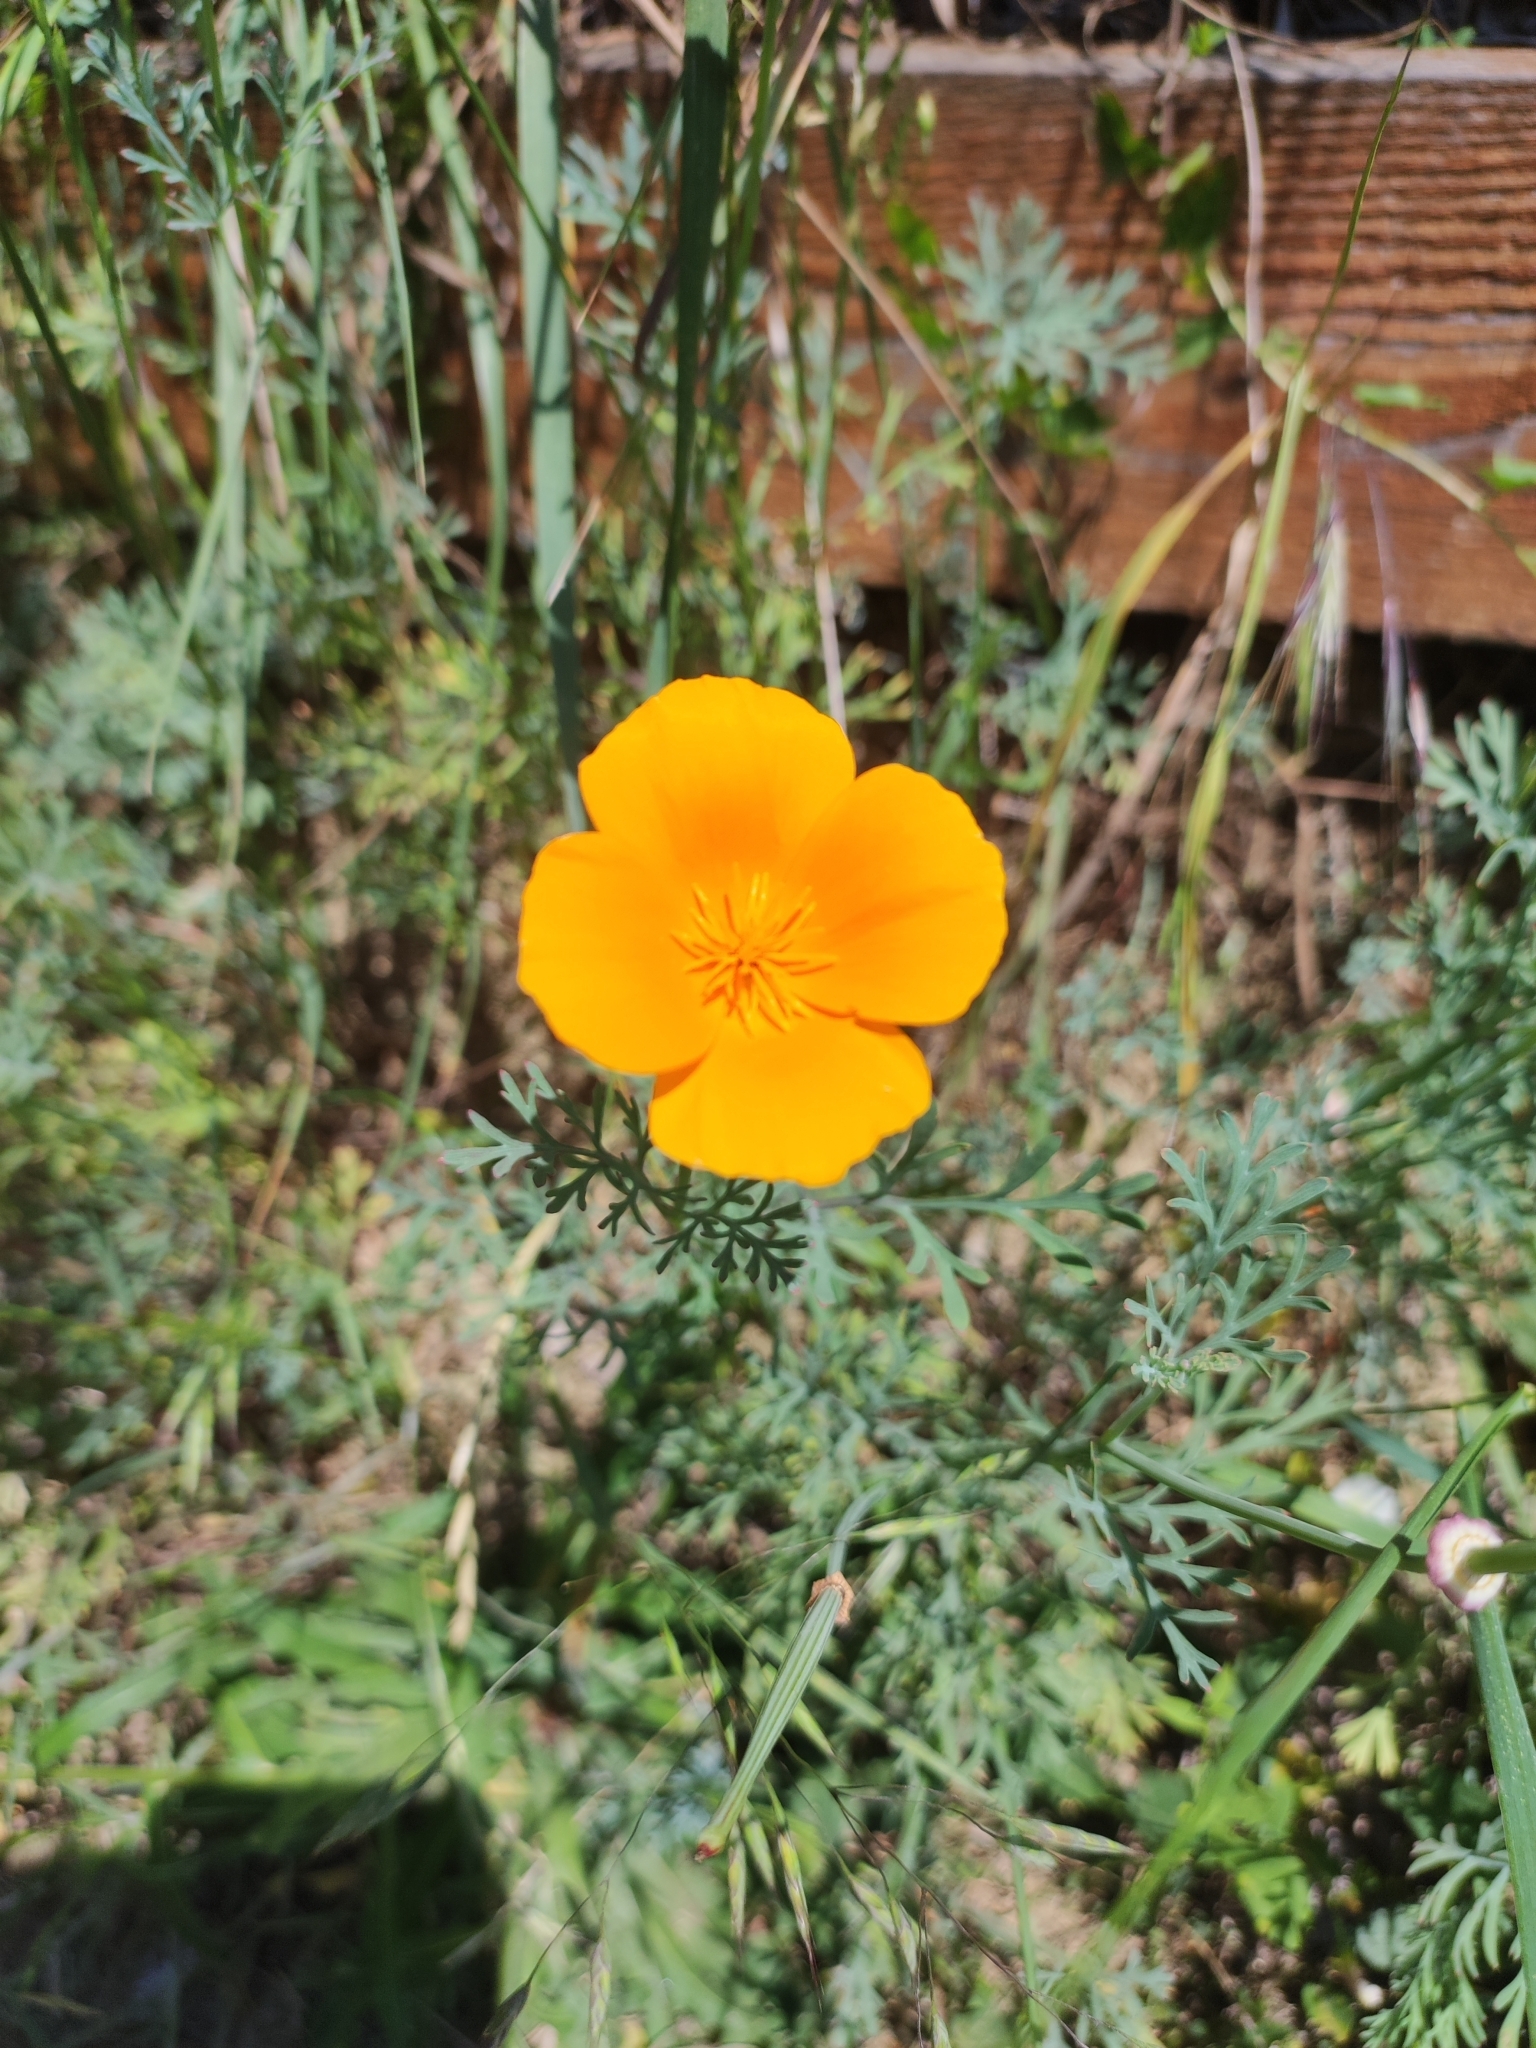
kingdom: Plantae
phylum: Tracheophyta
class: Magnoliopsida
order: Ranunculales
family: Papaveraceae
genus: Eschscholzia
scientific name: Eschscholzia californica
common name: California poppy
